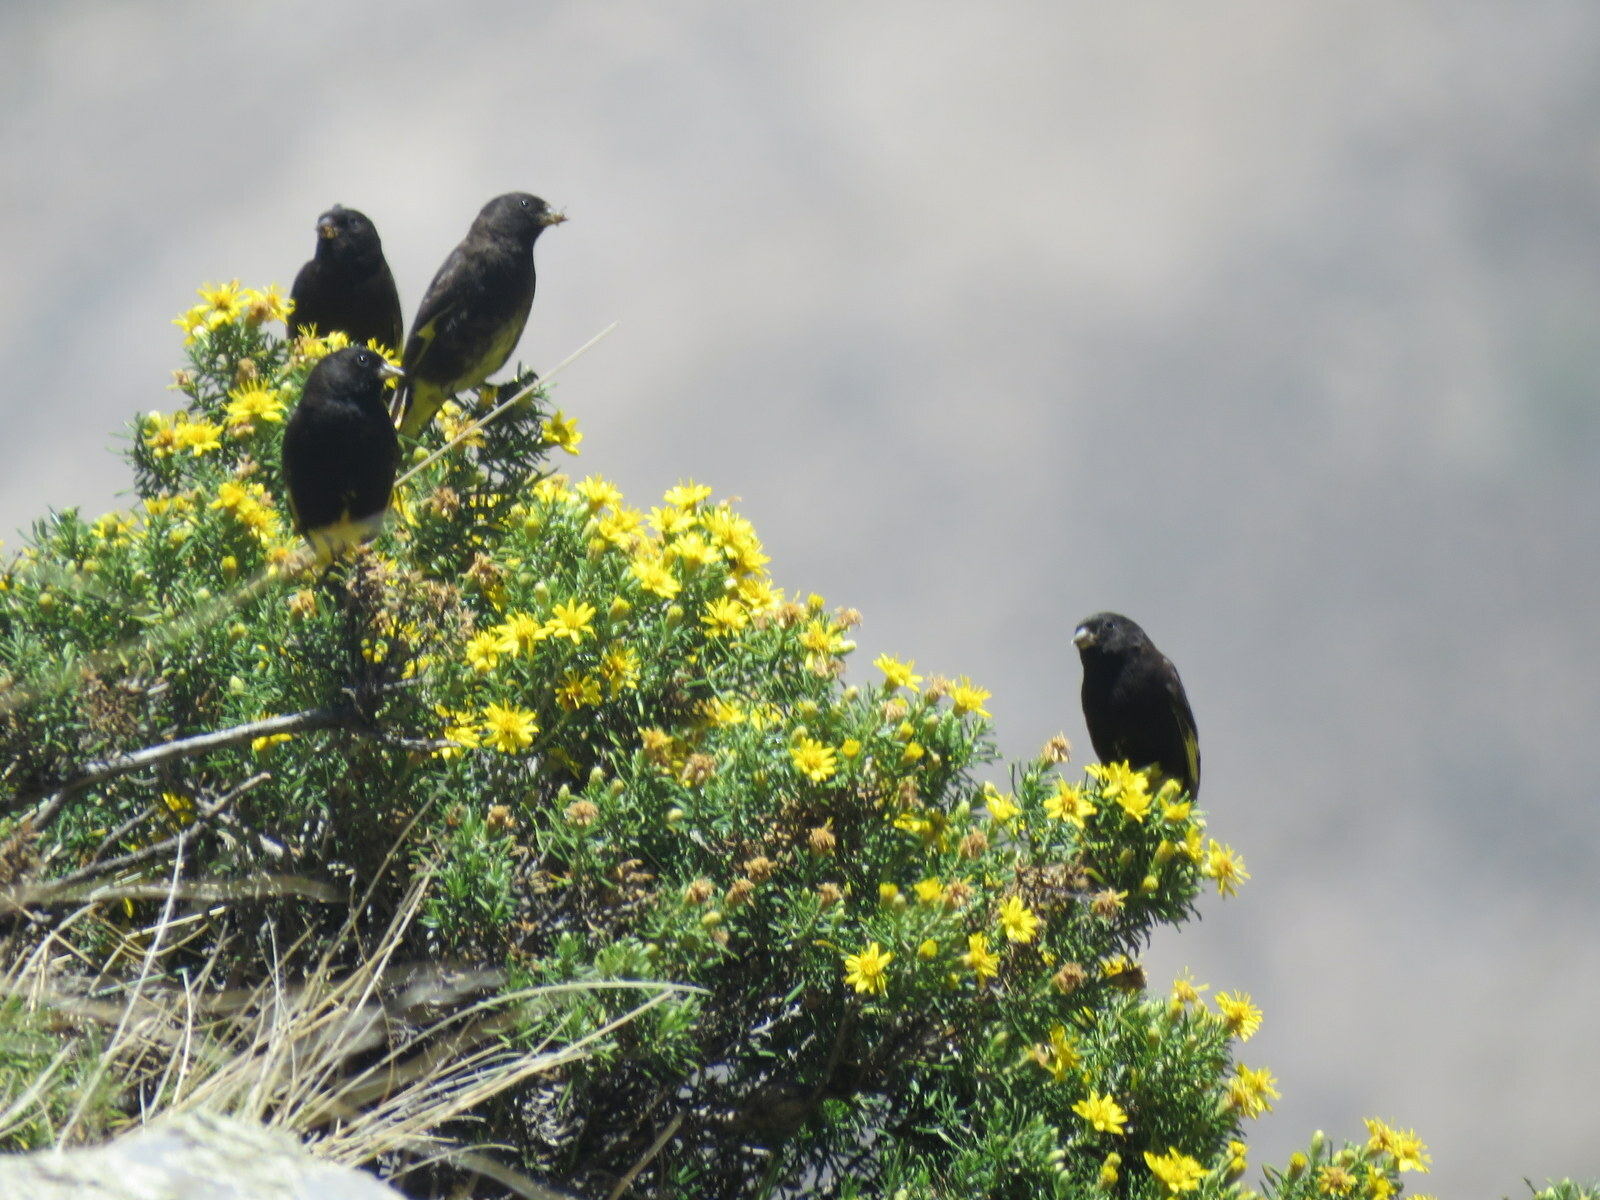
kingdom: Animalia
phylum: Chordata
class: Aves
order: Passeriformes
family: Fringillidae
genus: Spinus
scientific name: Spinus atratus
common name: Black siskin
